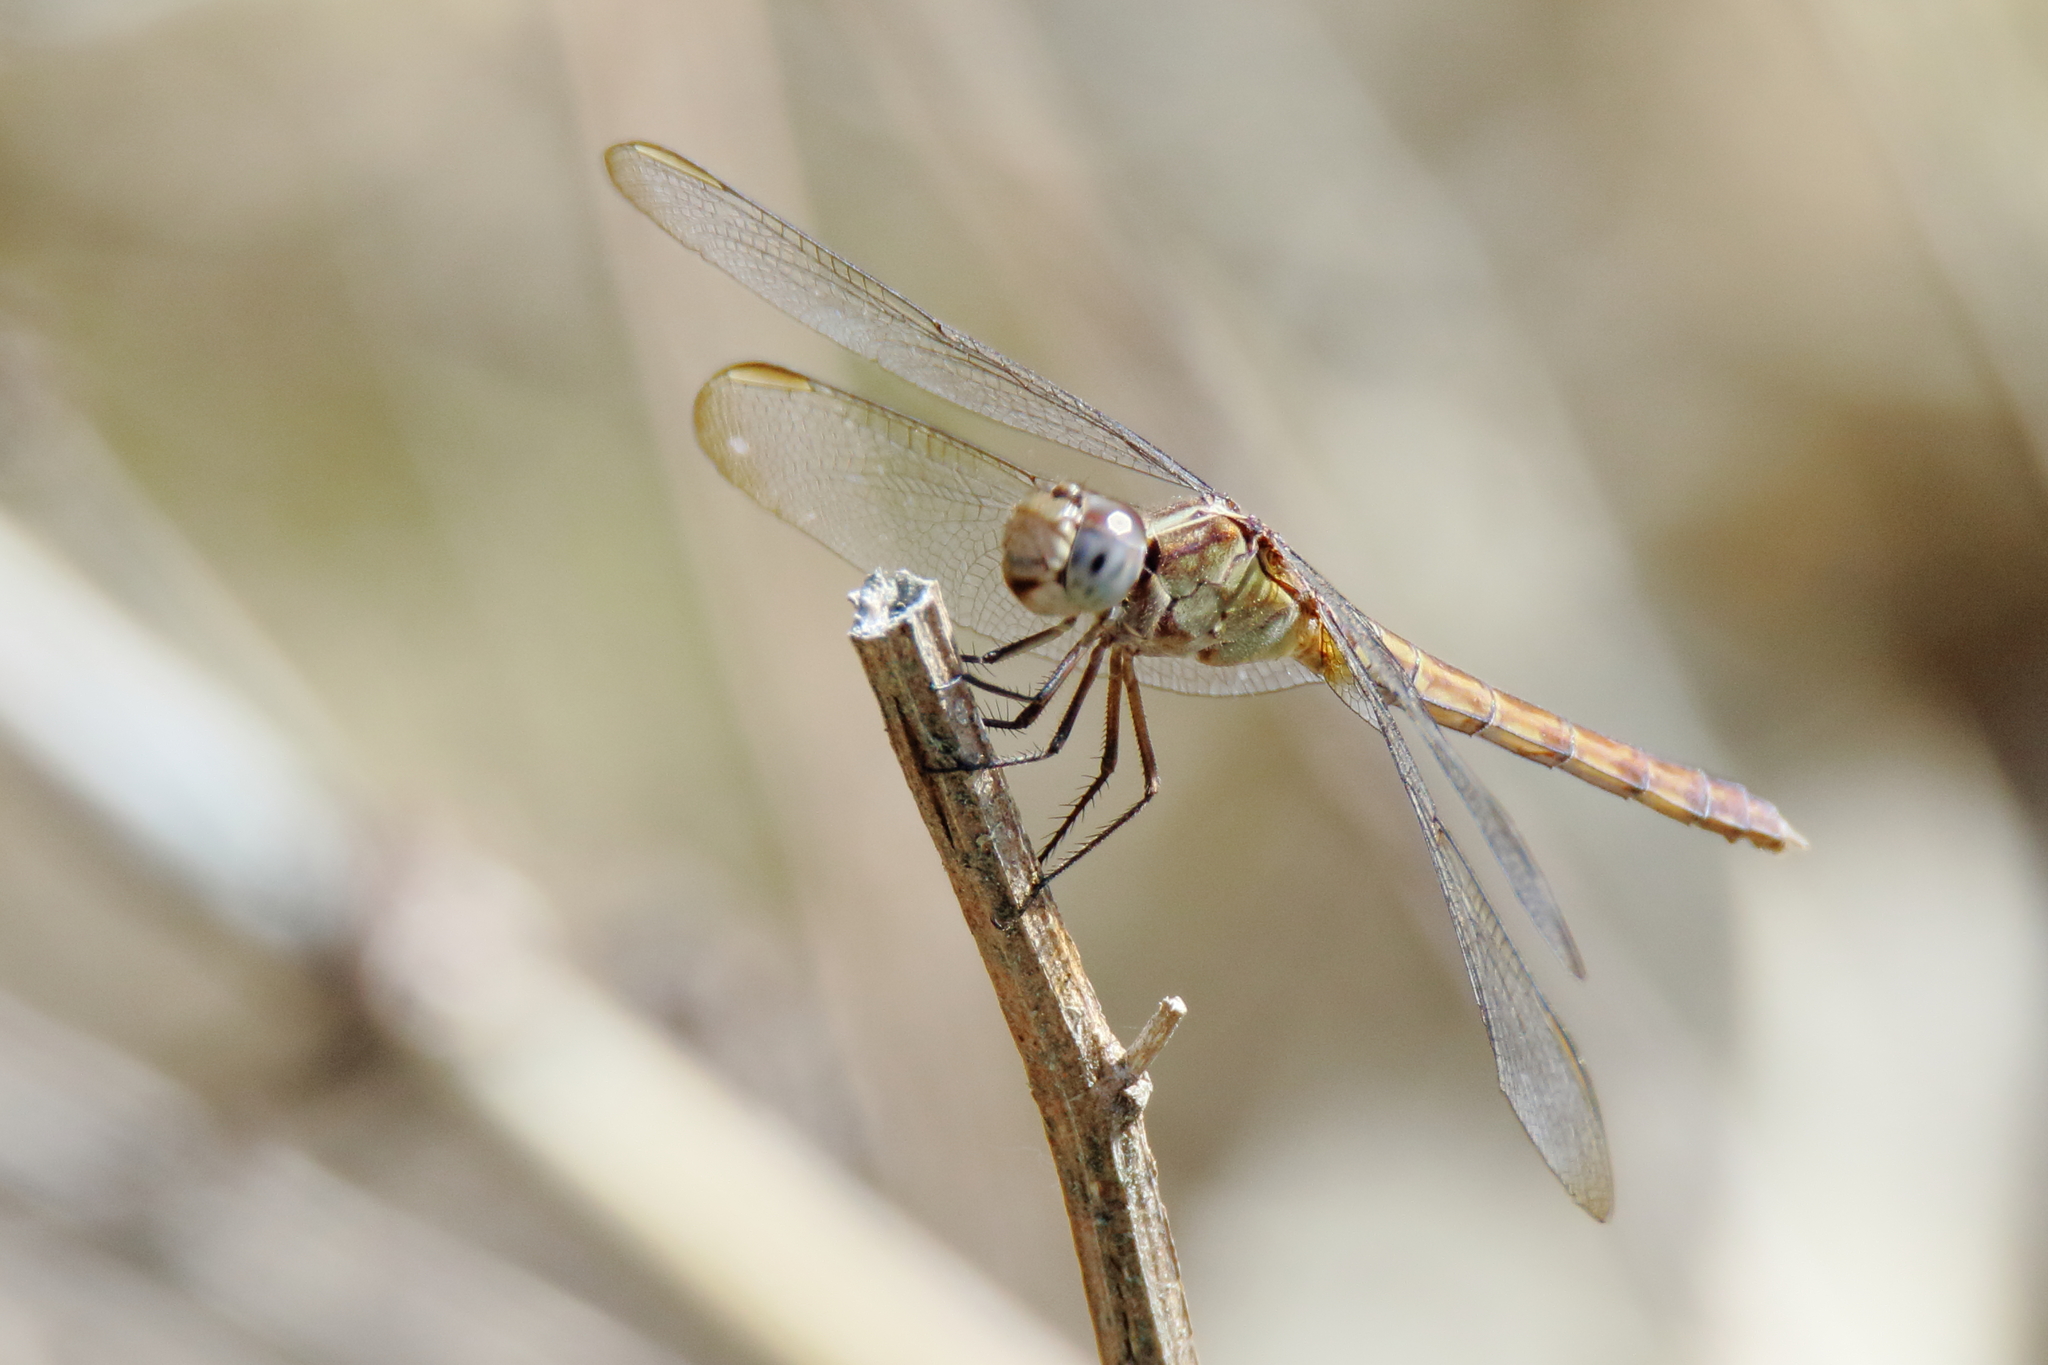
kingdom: Animalia
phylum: Arthropoda
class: Insecta
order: Odonata
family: Libellulidae
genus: Erythrodiplax
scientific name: Erythrodiplax umbrata
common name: Band-winged dragonlet
